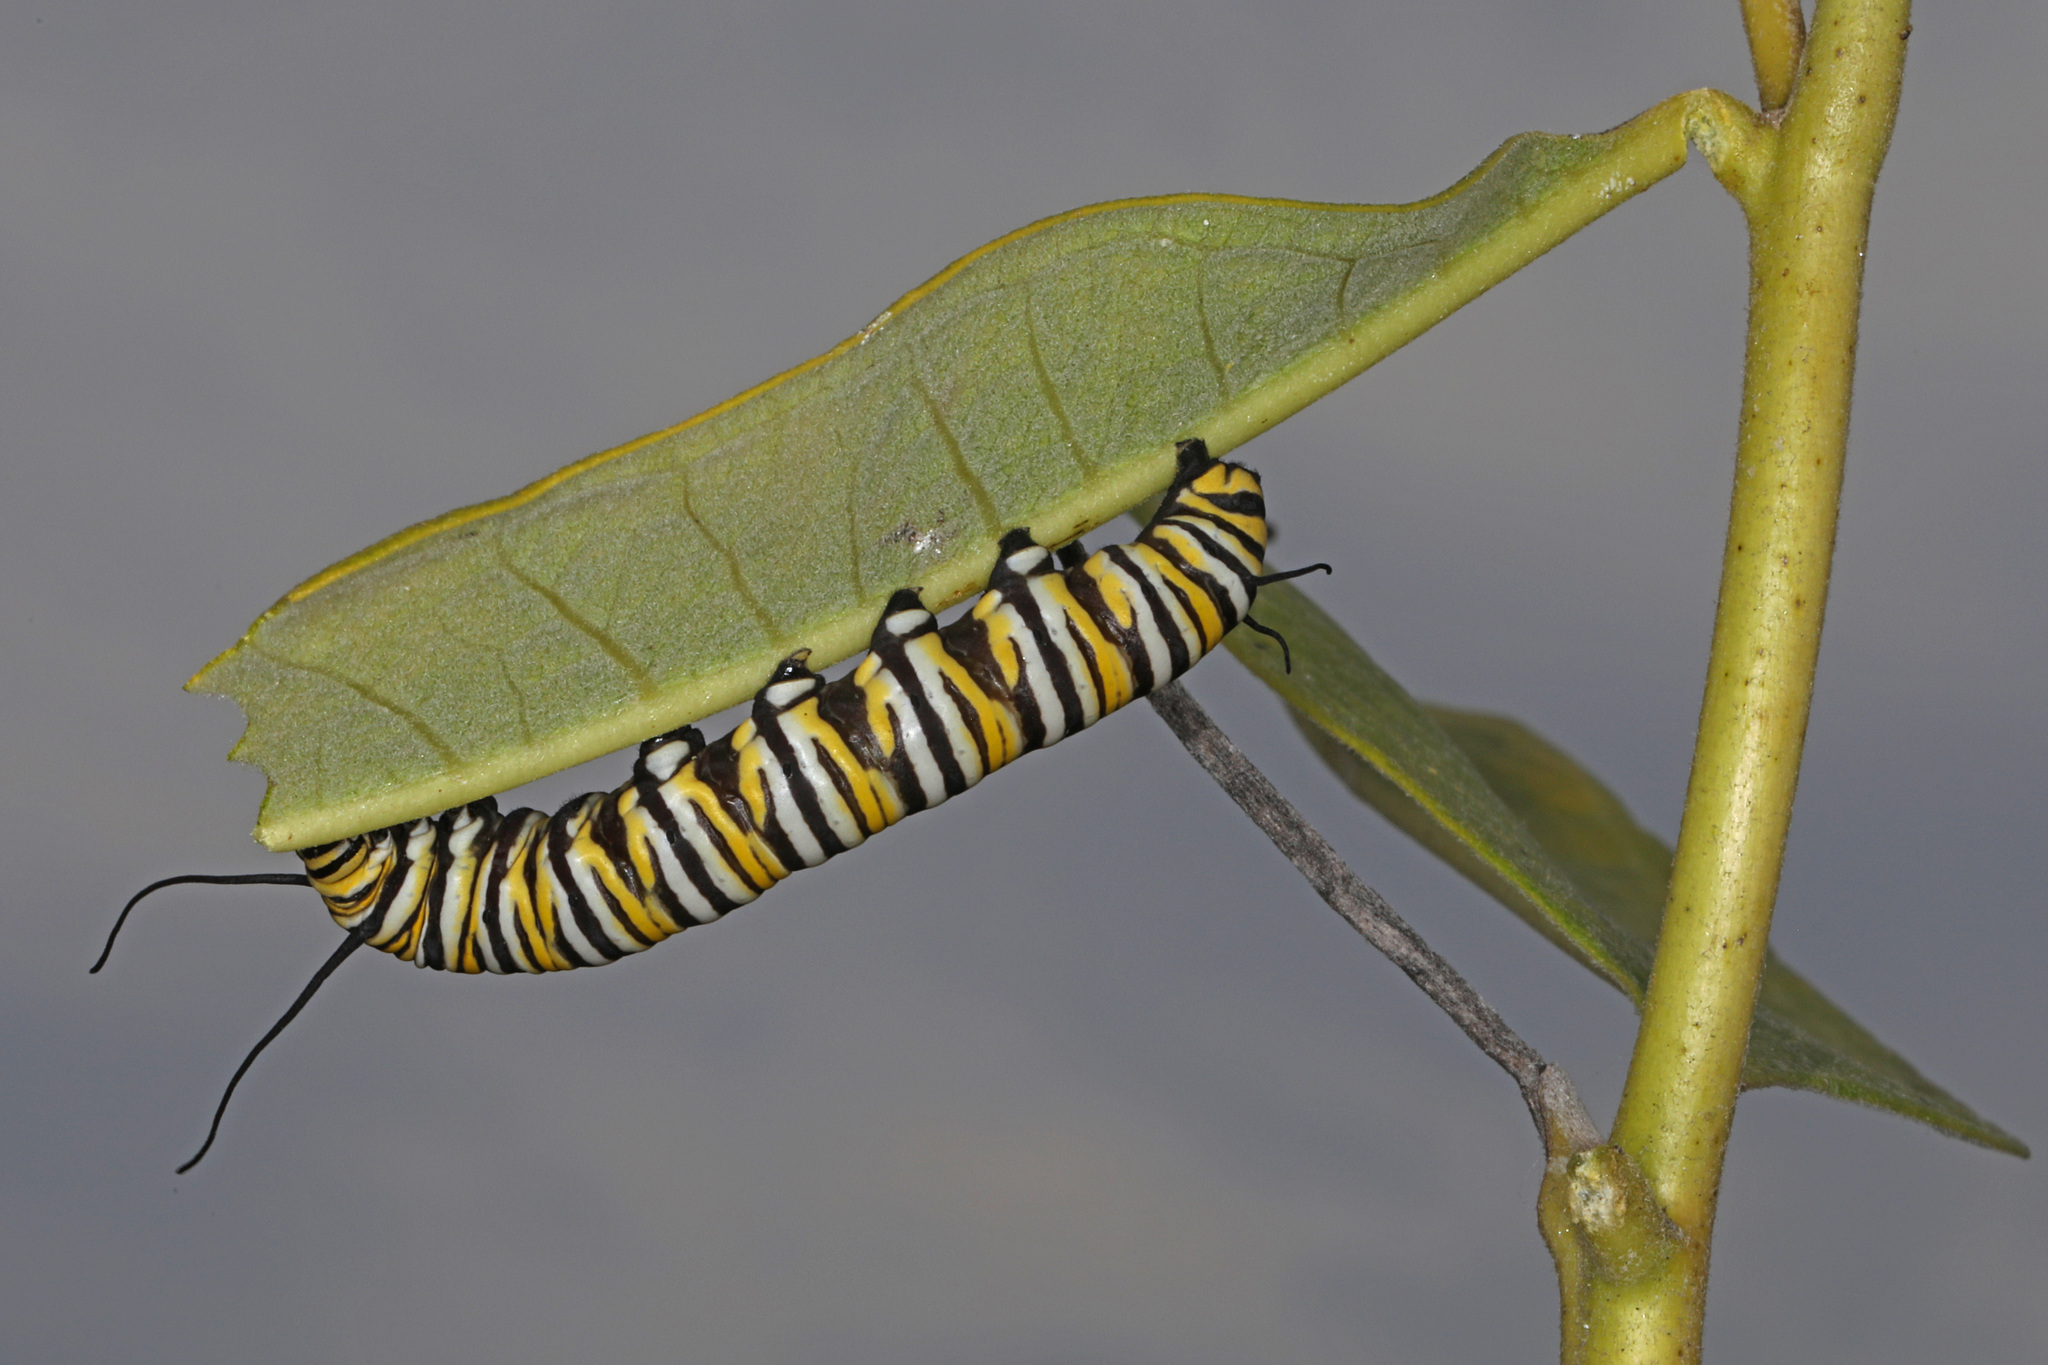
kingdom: Animalia
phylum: Arthropoda
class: Insecta
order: Lepidoptera
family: Nymphalidae
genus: Danaus
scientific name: Danaus plexippus
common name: Monarch
